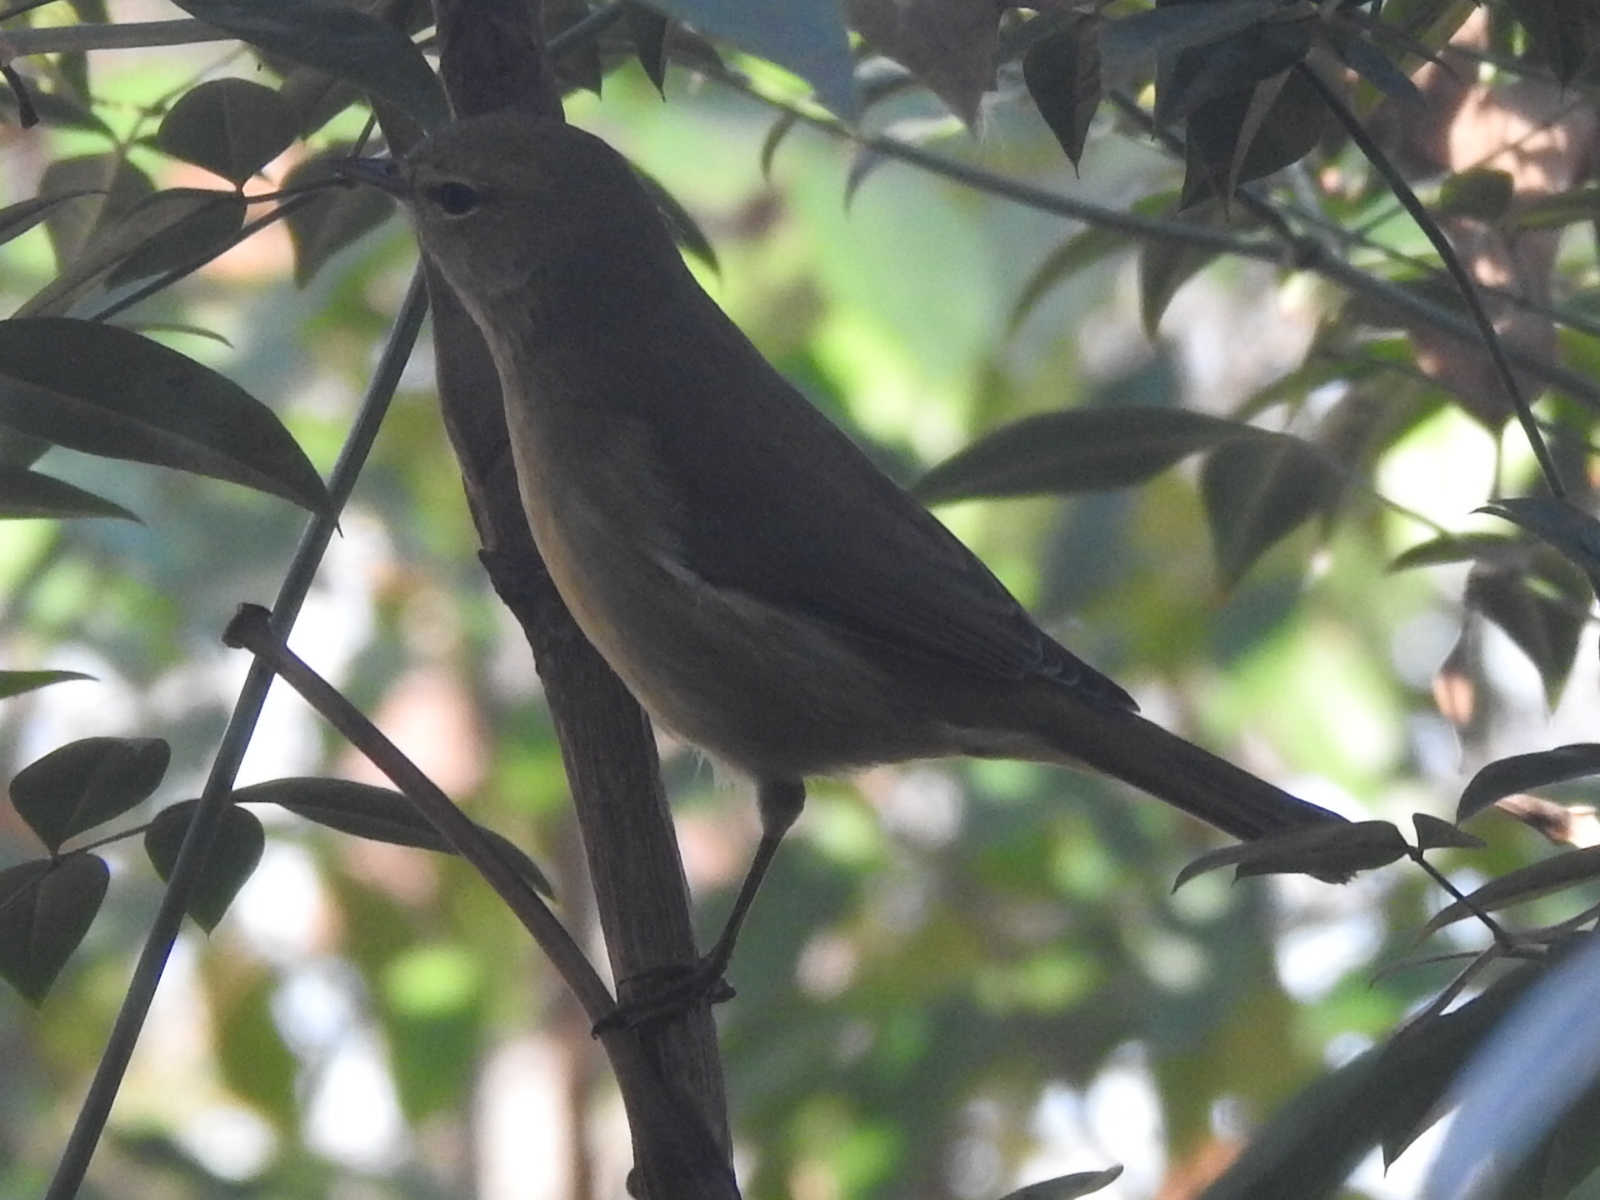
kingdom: Animalia
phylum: Chordata
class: Aves
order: Passeriformes
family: Parulidae
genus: Leiothlypis
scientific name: Leiothlypis celata
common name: Orange-crowned warbler
